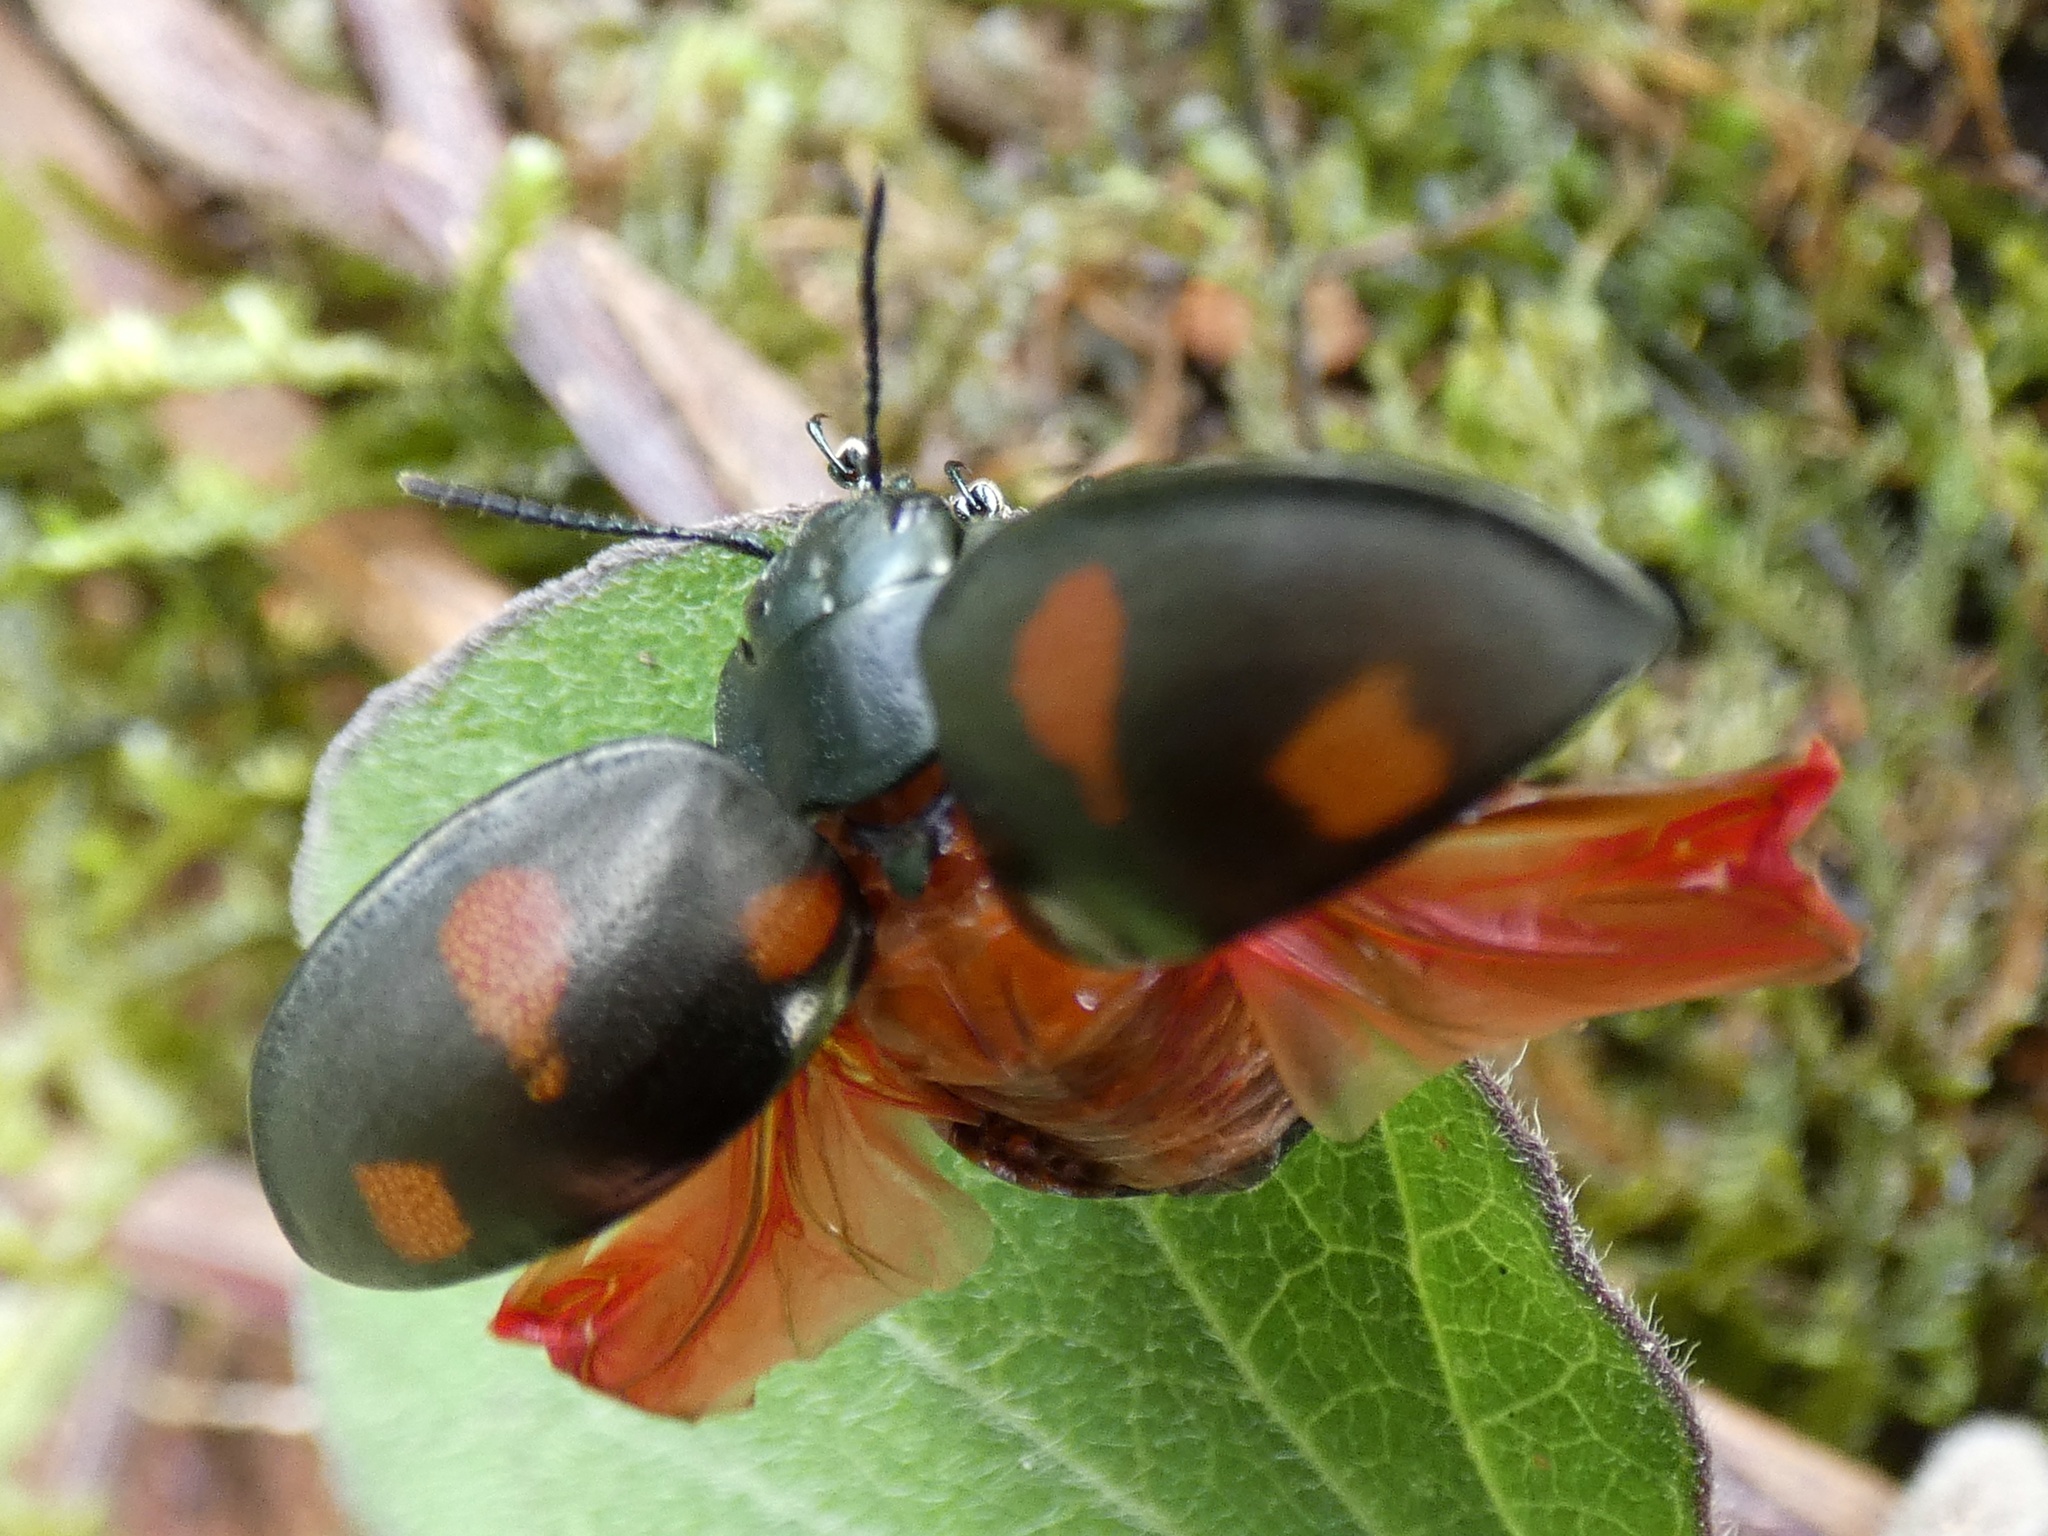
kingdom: Animalia
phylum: Arthropoda
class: Insecta
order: Coleoptera
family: Chrysomelidae
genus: Platyphora
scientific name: Platyphora
